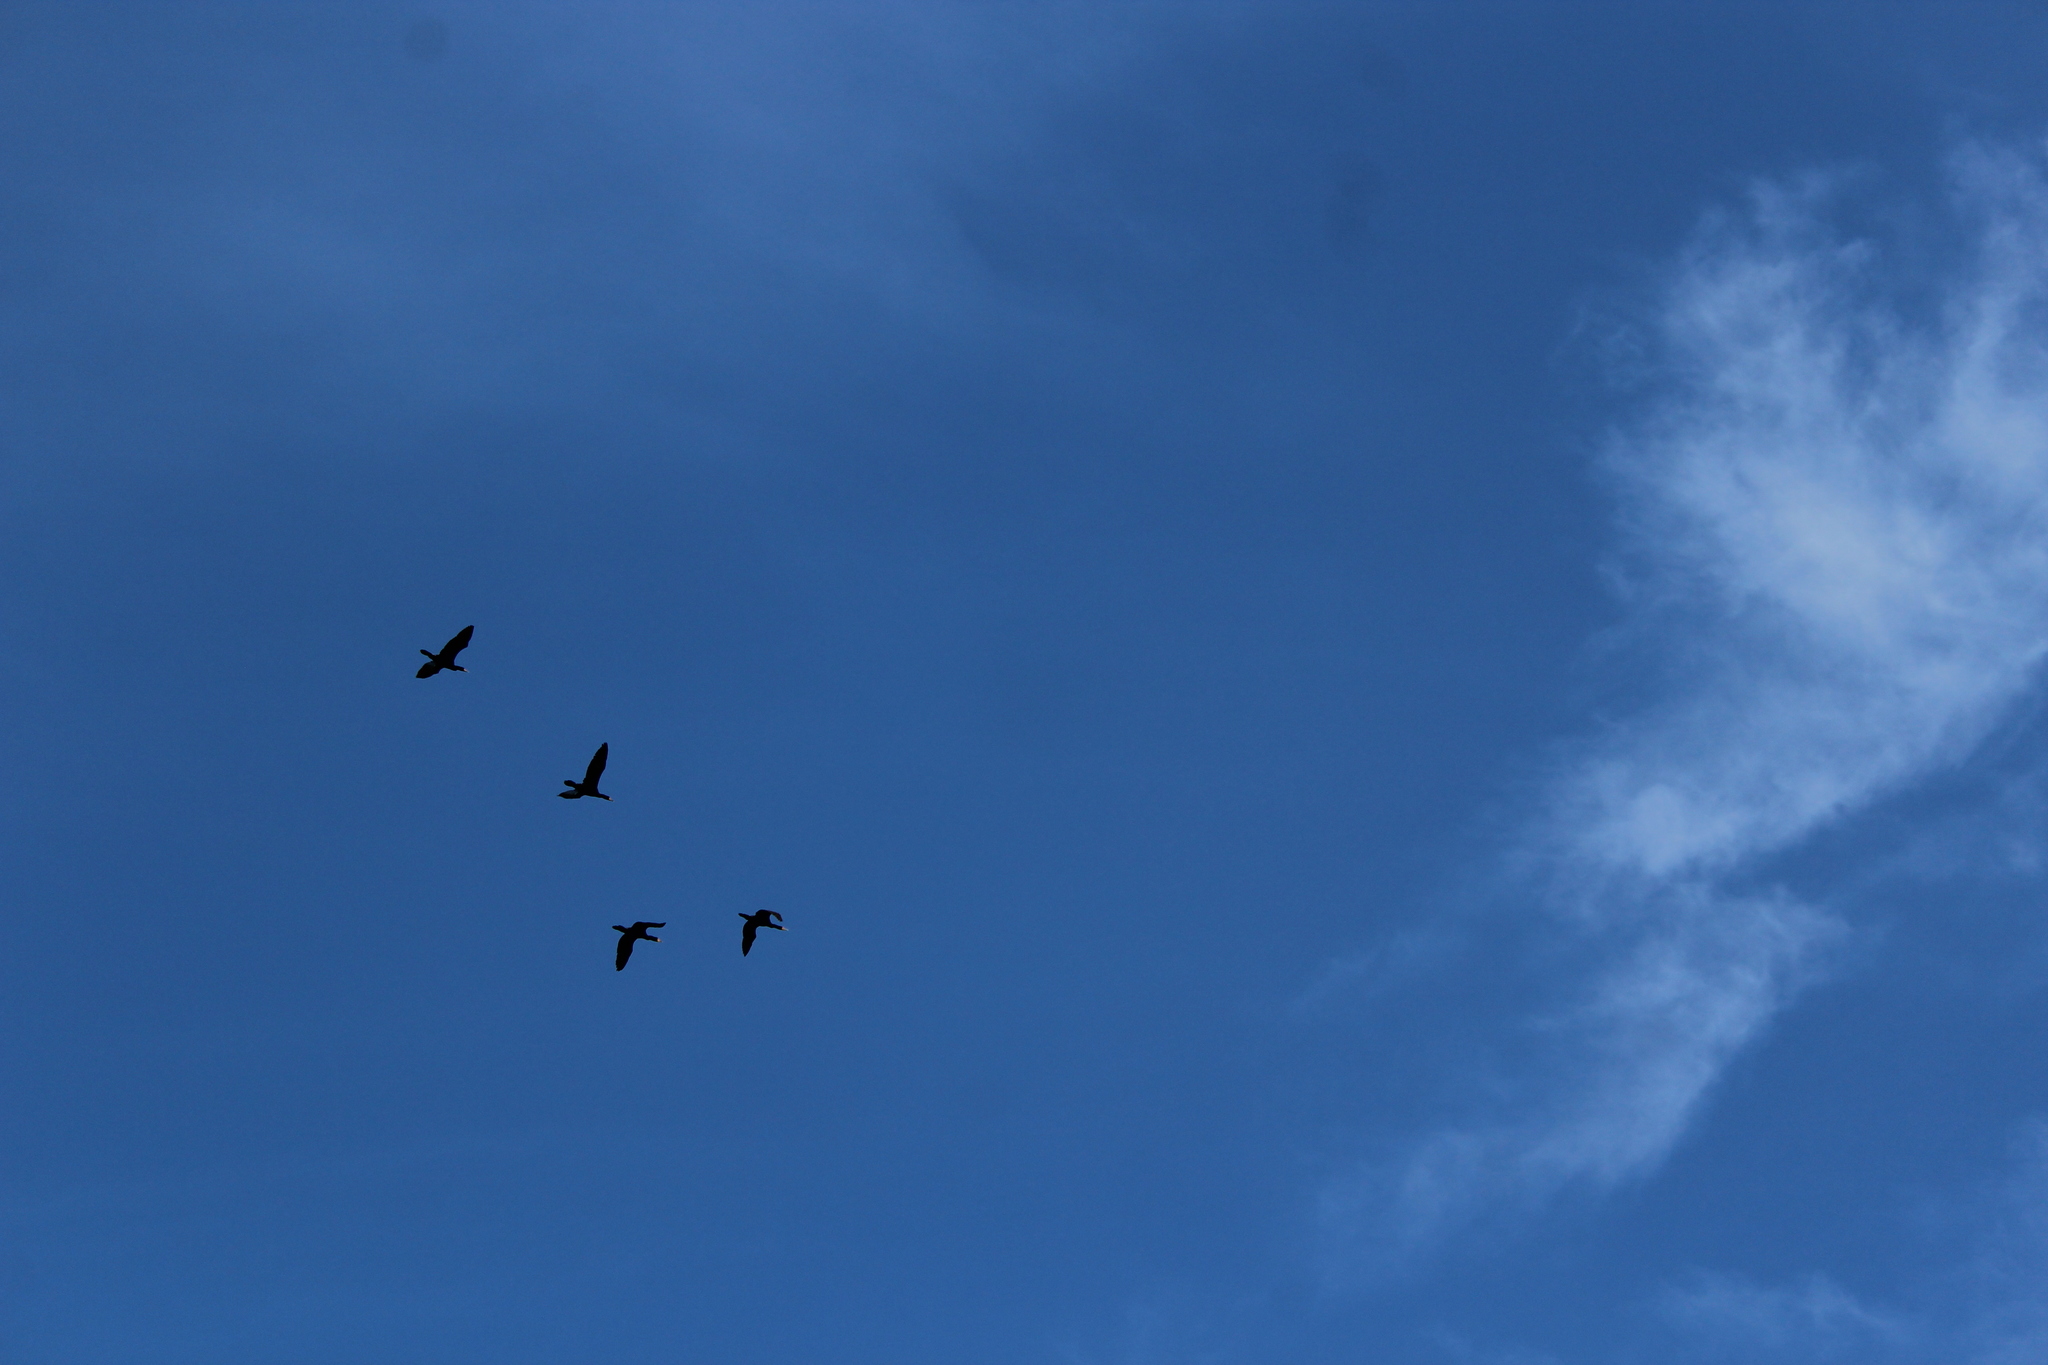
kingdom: Animalia
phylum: Chordata
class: Aves
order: Suliformes
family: Phalacrocoracidae
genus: Phalacrocorax
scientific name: Phalacrocorax auritus
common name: Double-crested cormorant
